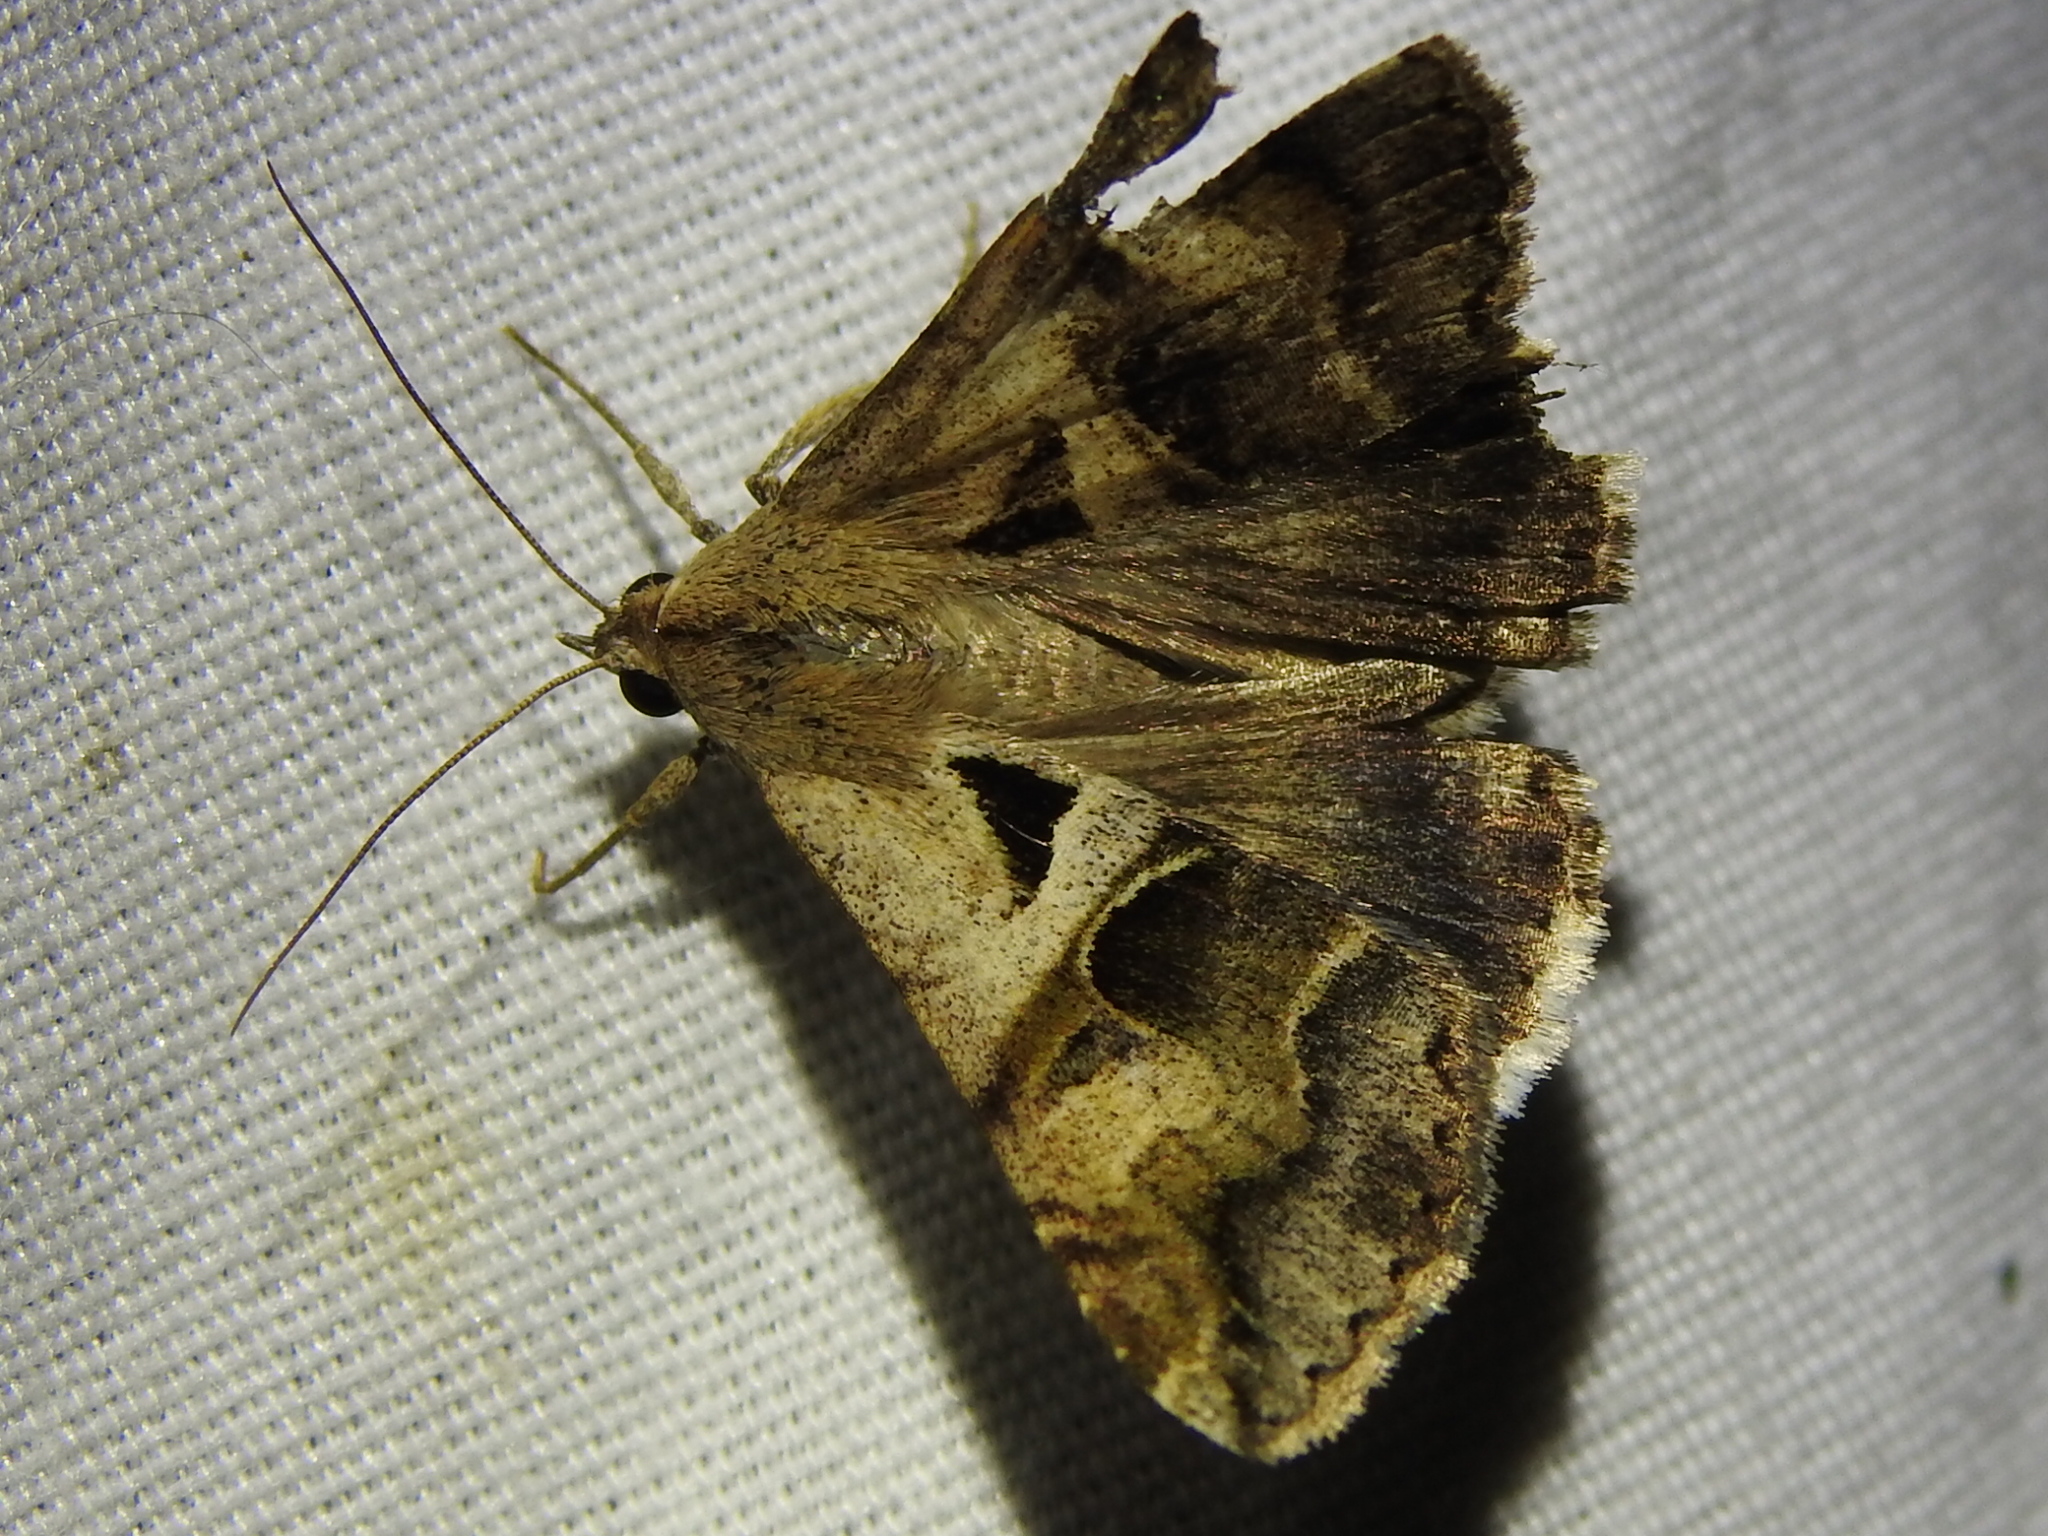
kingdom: Animalia
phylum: Arthropoda
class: Insecta
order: Lepidoptera
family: Erebidae
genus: Melipotis
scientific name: Melipotis cellaris
